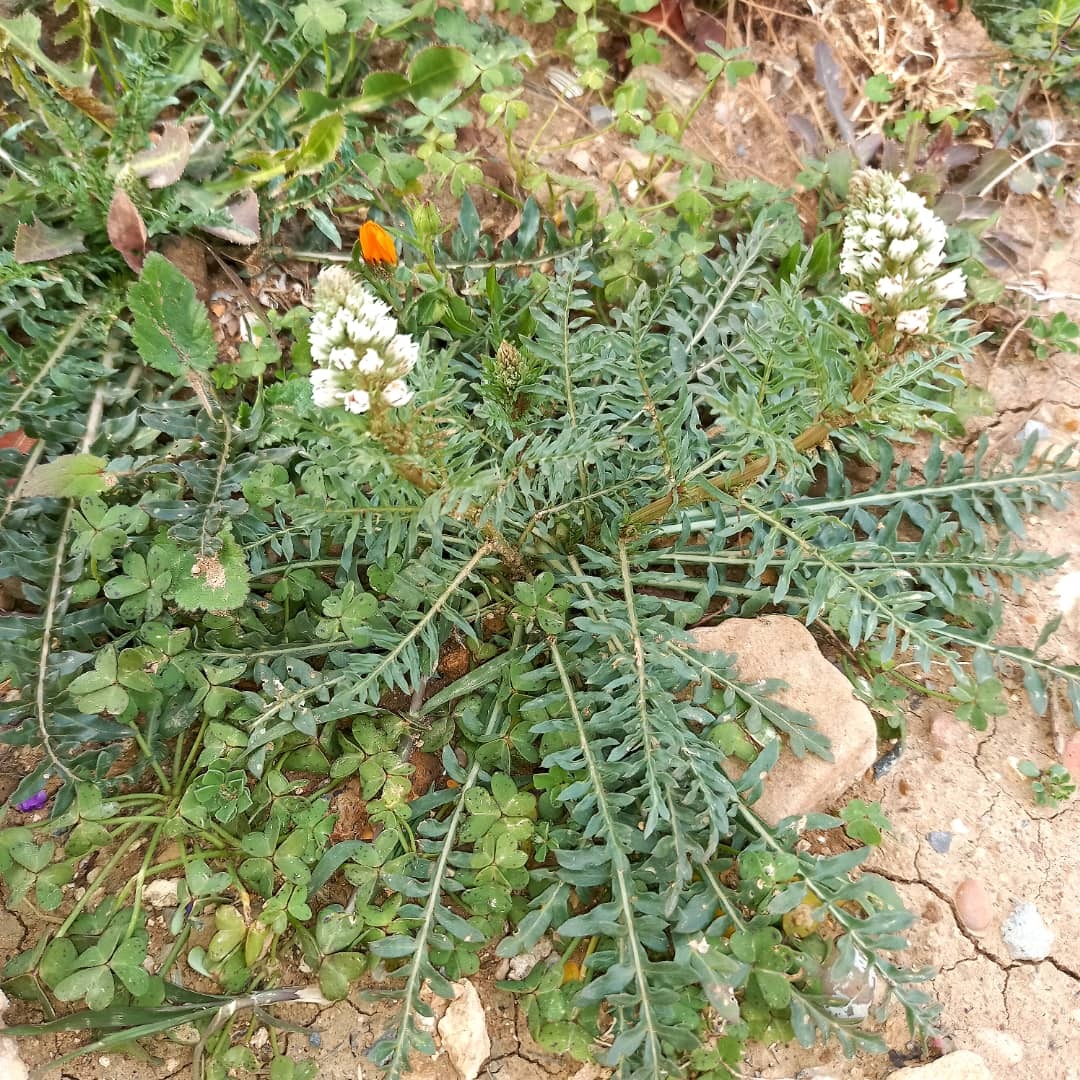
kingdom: Plantae
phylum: Tracheophyta
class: Magnoliopsida
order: Brassicales
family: Resedaceae
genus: Reseda
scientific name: Reseda alba
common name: White mignonette
